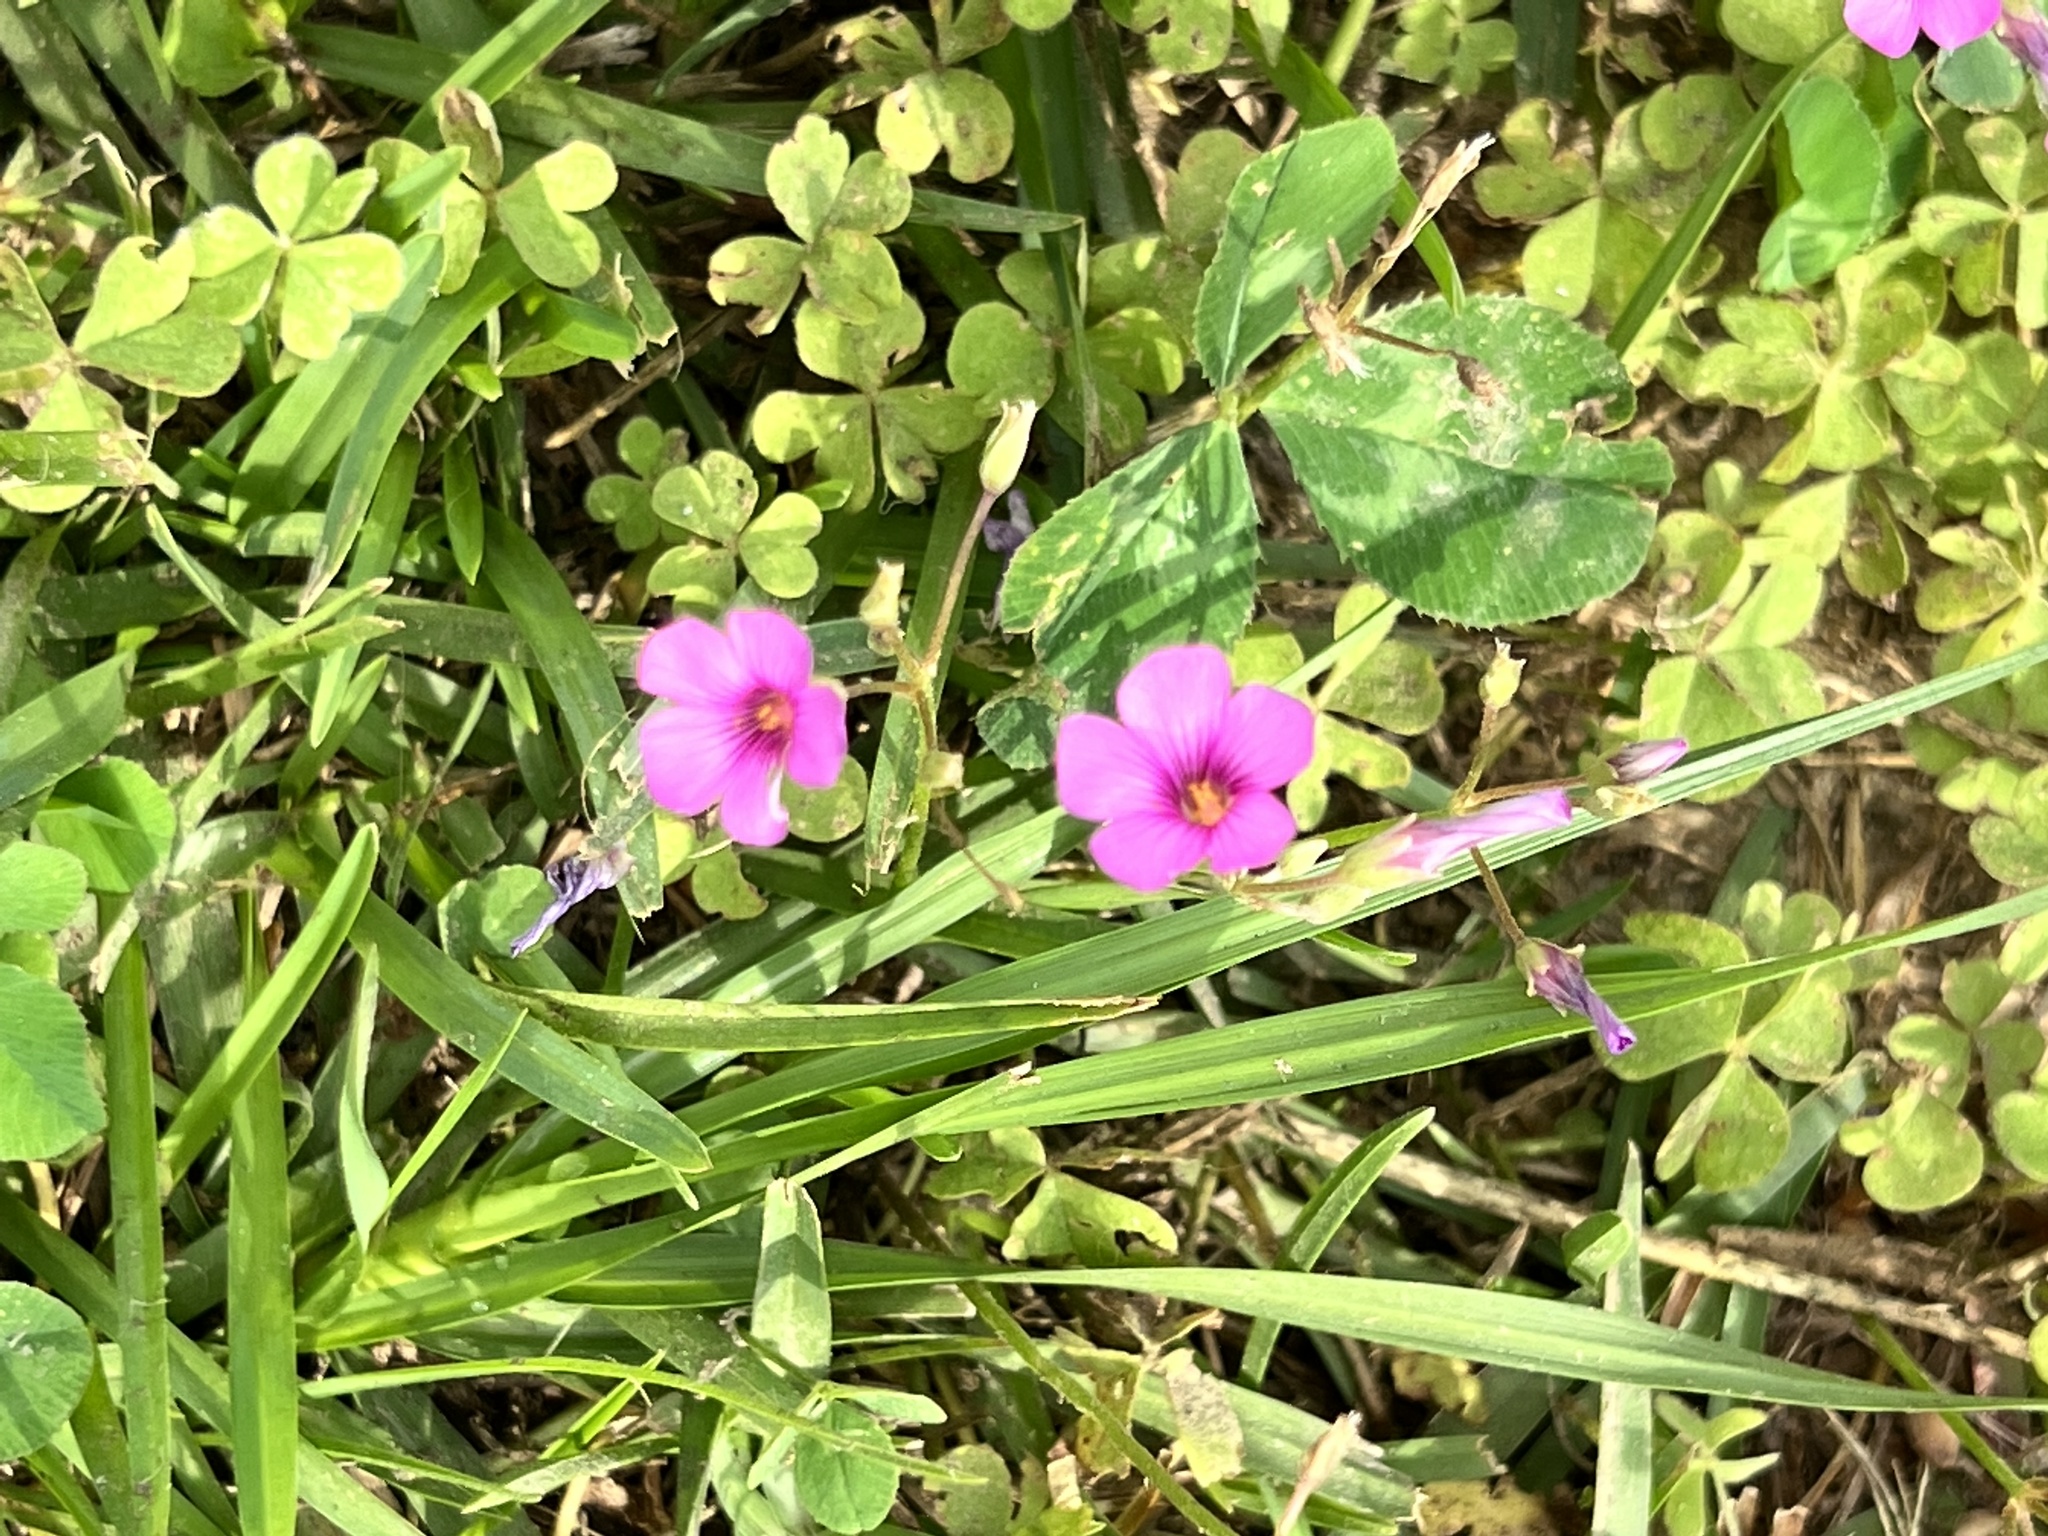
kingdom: Plantae
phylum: Tracheophyta
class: Magnoliopsida
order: Oxalidales
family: Oxalidaceae
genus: Oxalis
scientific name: Oxalis articulata
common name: Pink-sorrel
